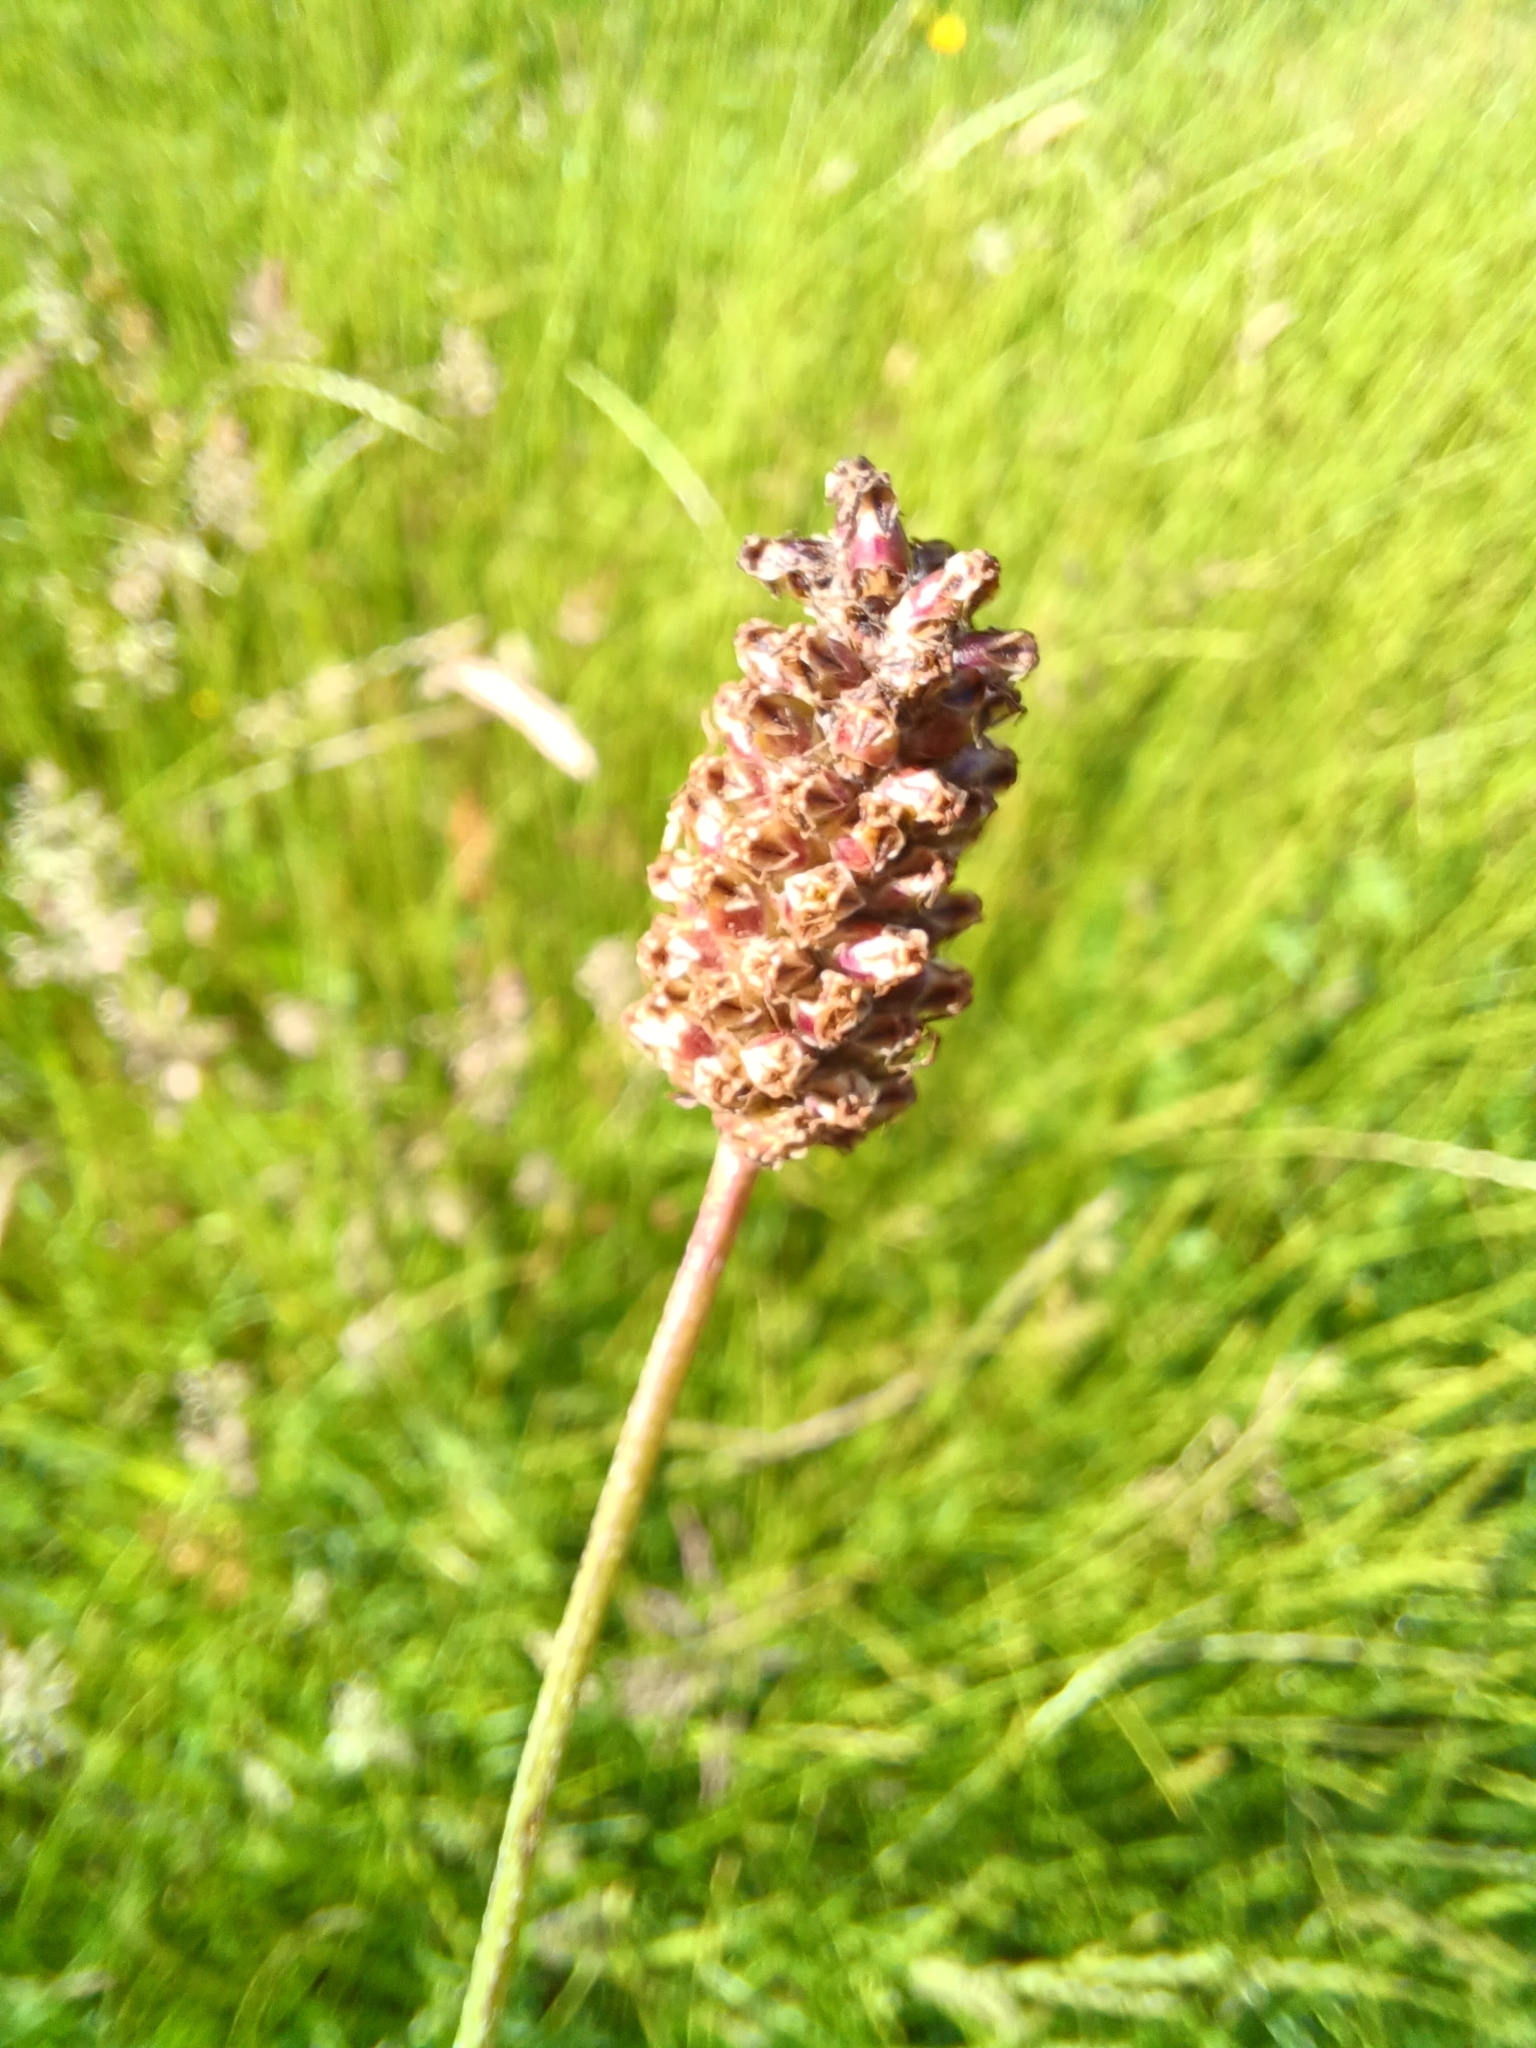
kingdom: Plantae
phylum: Tracheophyta
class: Magnoliopsida
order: Lamiales
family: Plantaginaceae
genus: Plantago
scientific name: Plantago lanceolata
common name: Ribwort plantain
